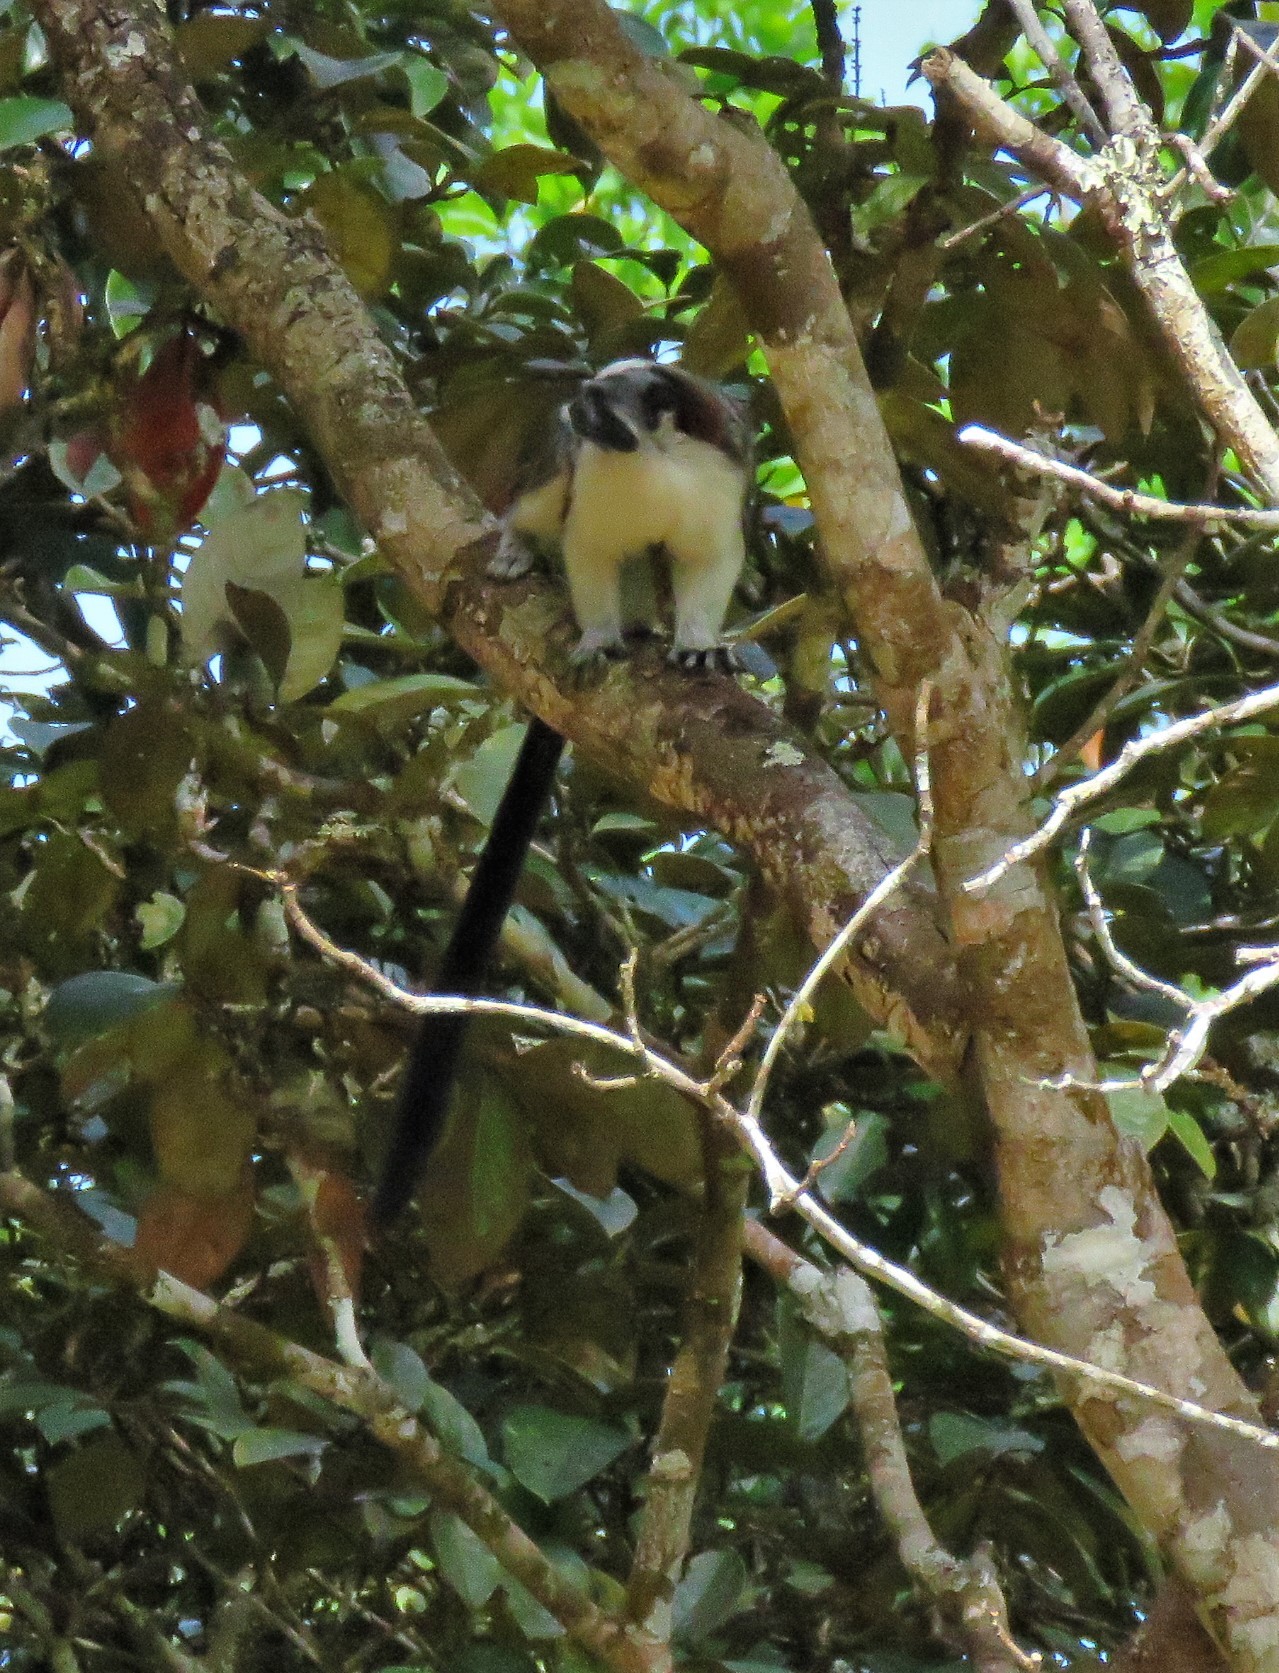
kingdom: Animalia
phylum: Chordata
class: Mammalia
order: Primates
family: Callitrichidae
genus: Saguinus
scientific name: Saguinus geoffroyi
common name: Geoffroy s tamarin
